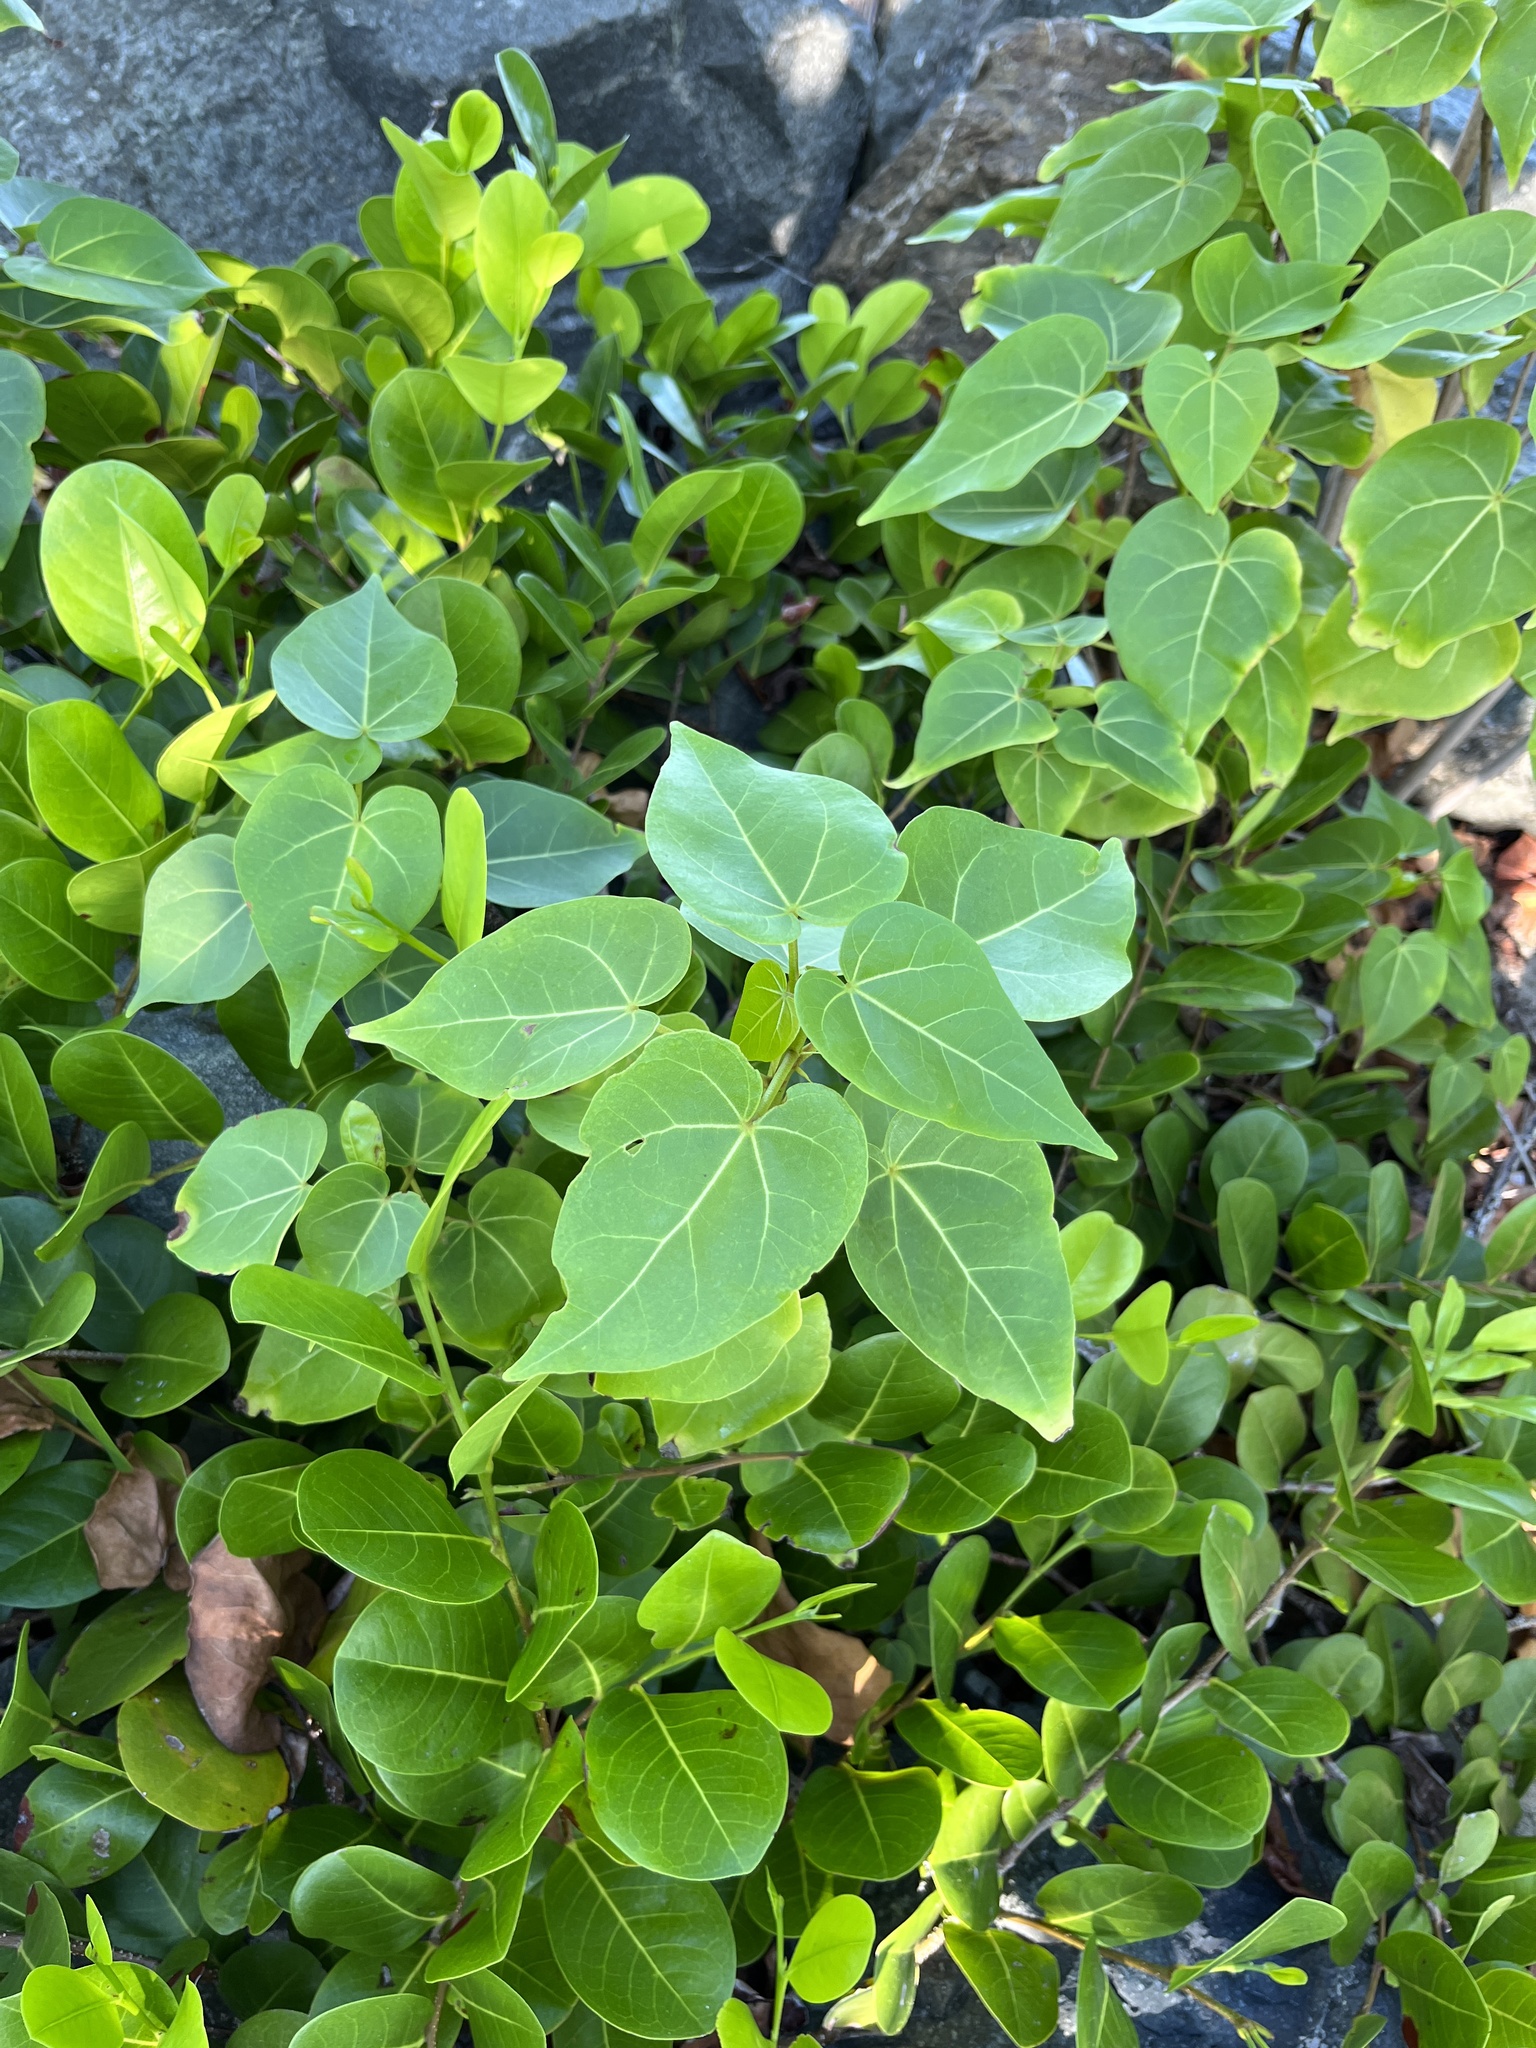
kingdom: Plantae
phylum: Tracheophyta
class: Magnoliopsida
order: Malvales
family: Malvaceae
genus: Thespesia
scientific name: Thespesia populnea
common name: Seaside mahoe
